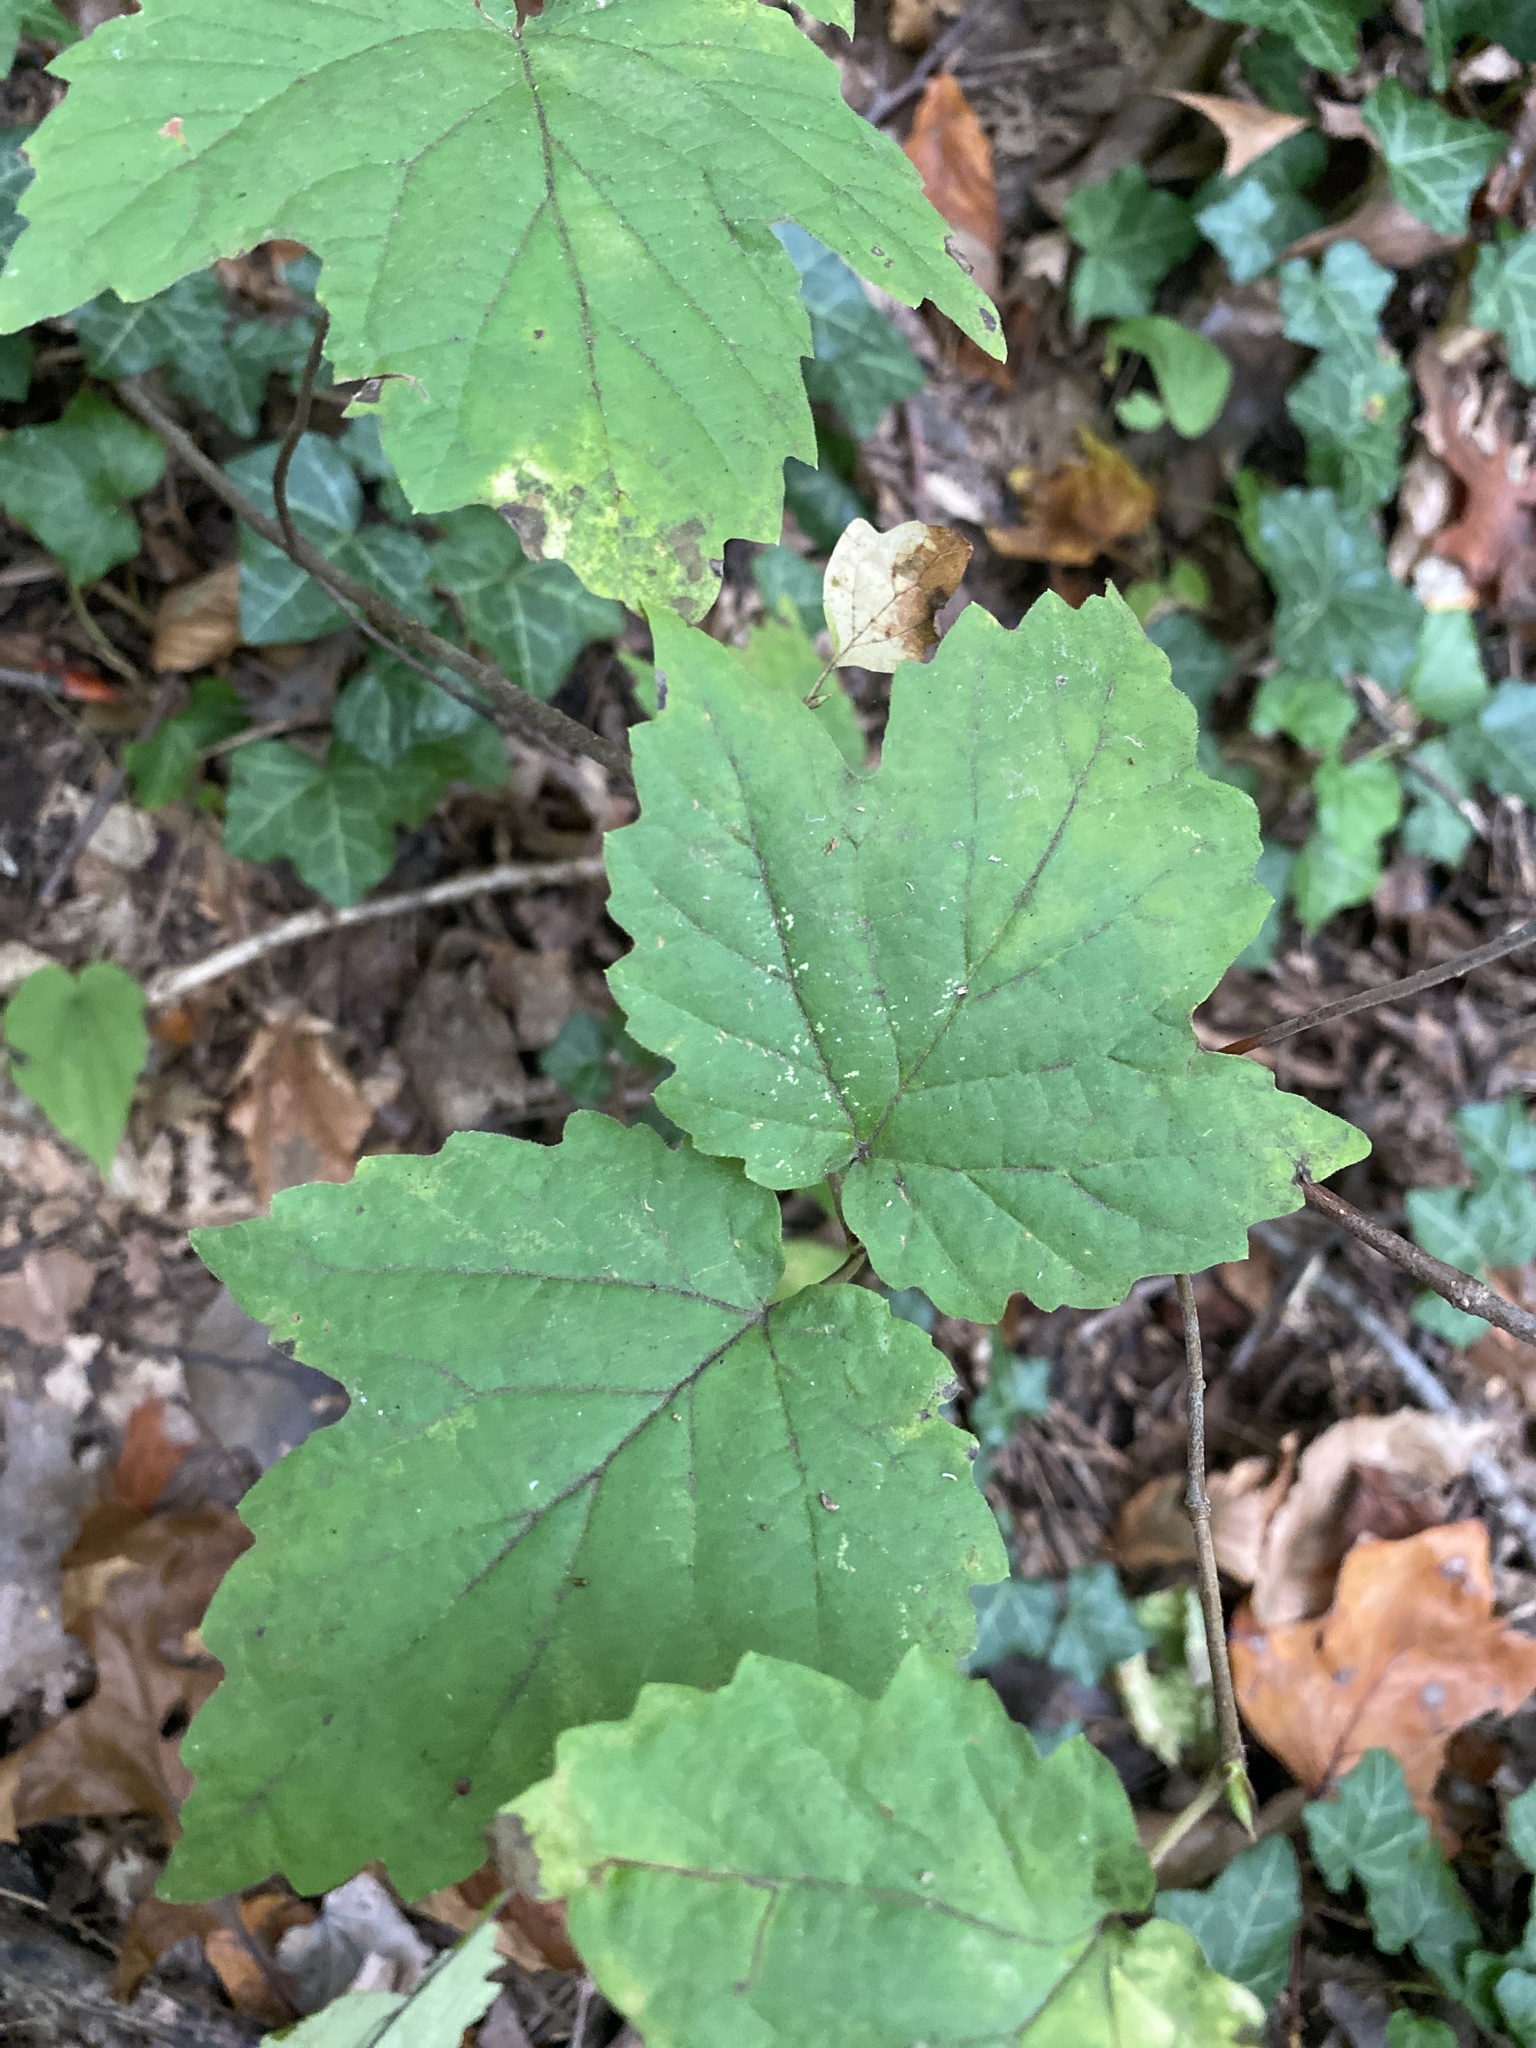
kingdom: Plantae
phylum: Tracheophyta
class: Magnoliopsida
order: Dipsacales
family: Viburnaceae
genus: Viburnum
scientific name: Viburnum acerifolium
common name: Dockmackie
